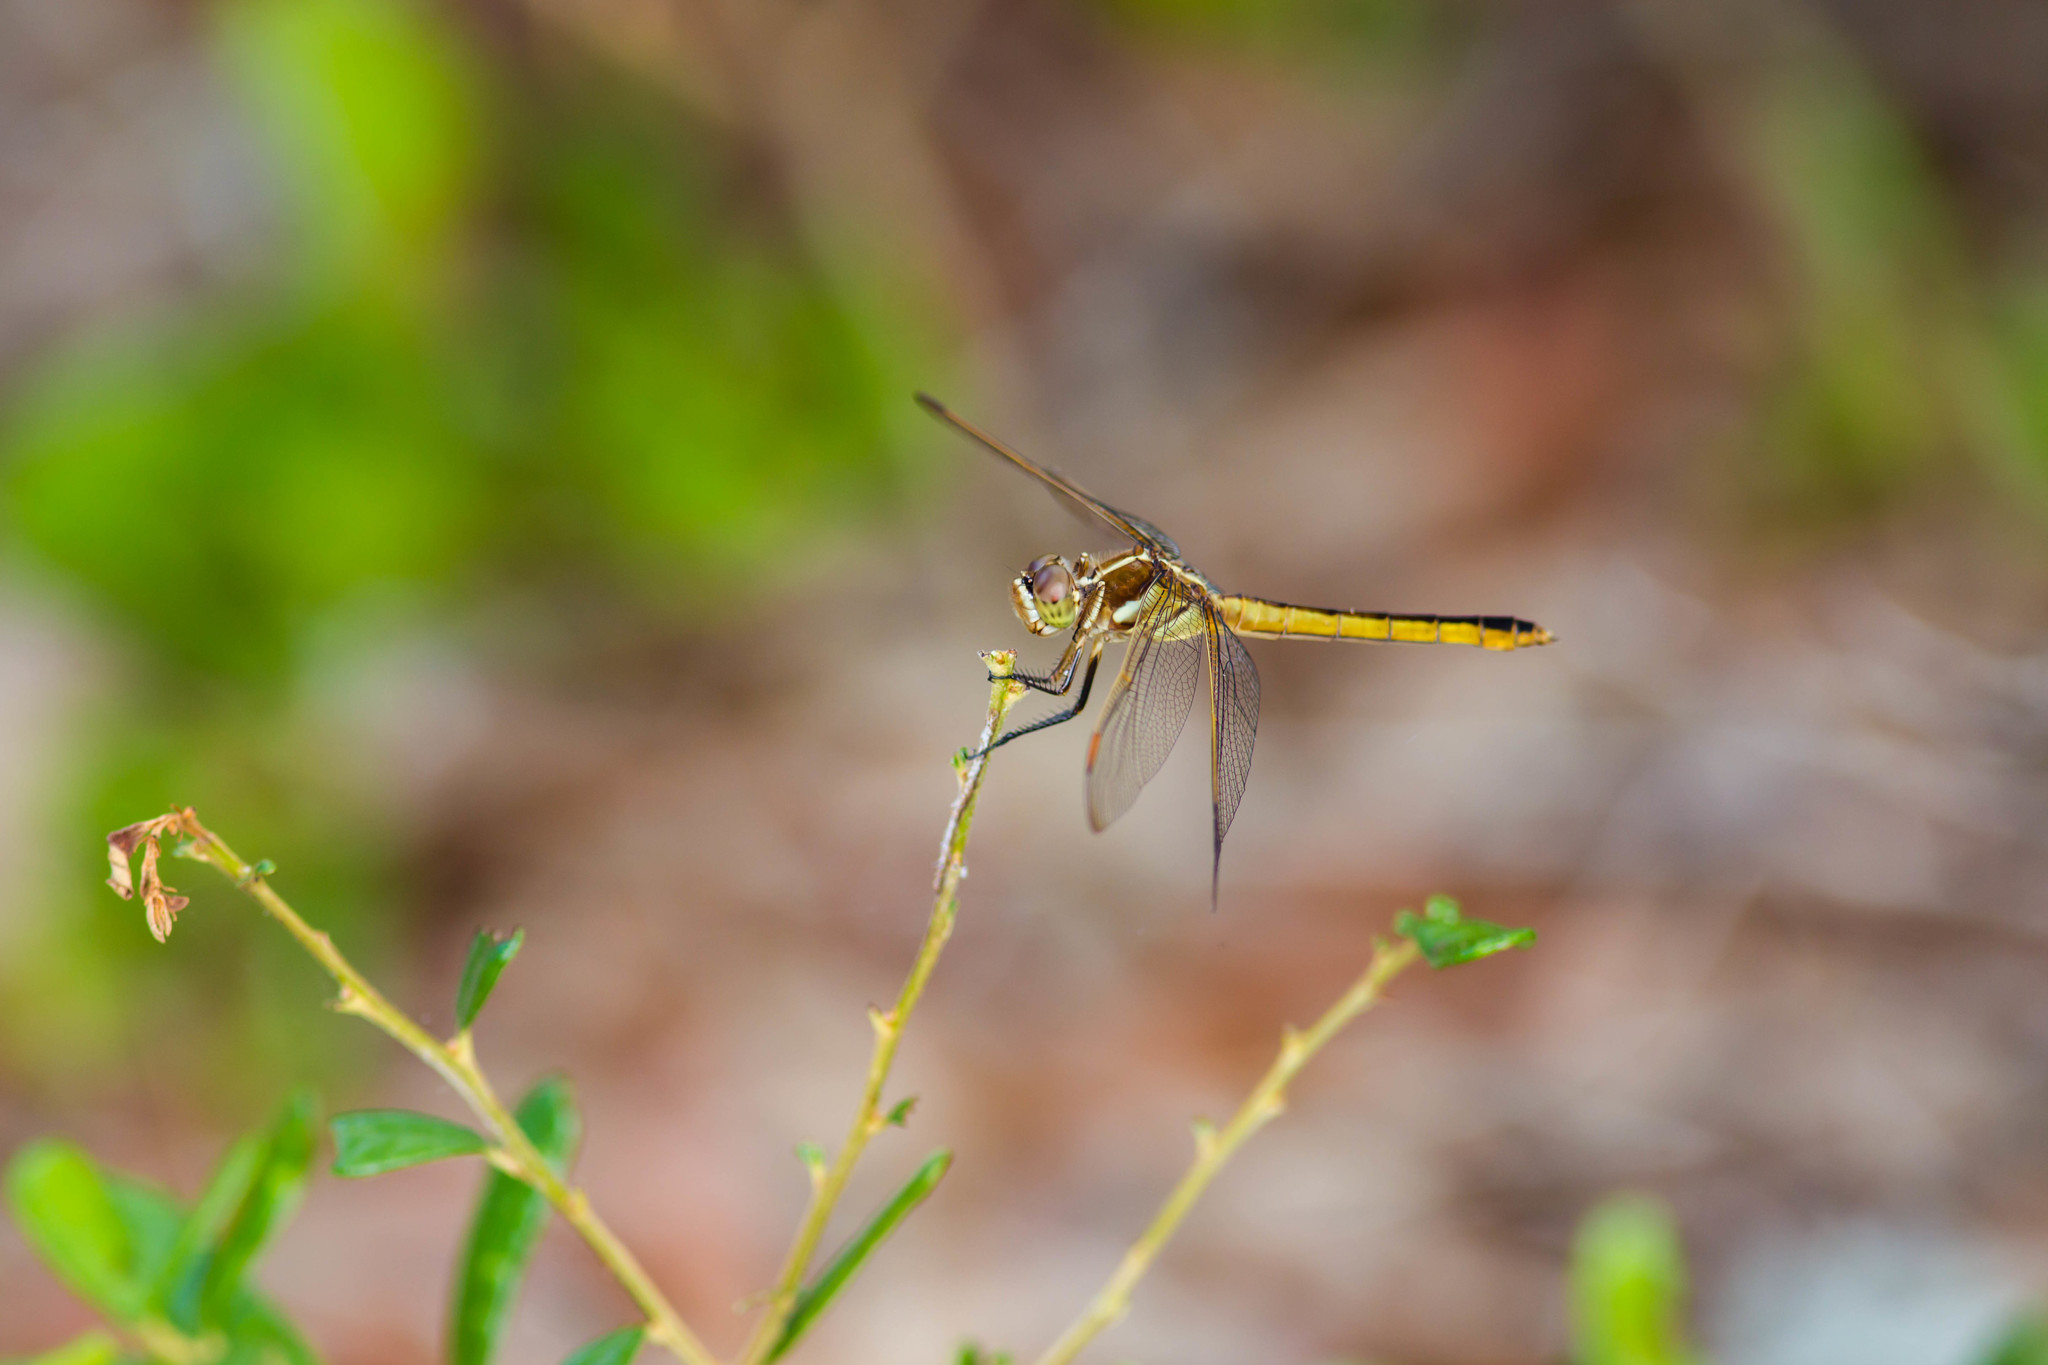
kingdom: Animalia
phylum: Arthropoda
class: Insecta
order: Odonata
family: Libellulidae
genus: Libellula
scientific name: Libellula auripennis
